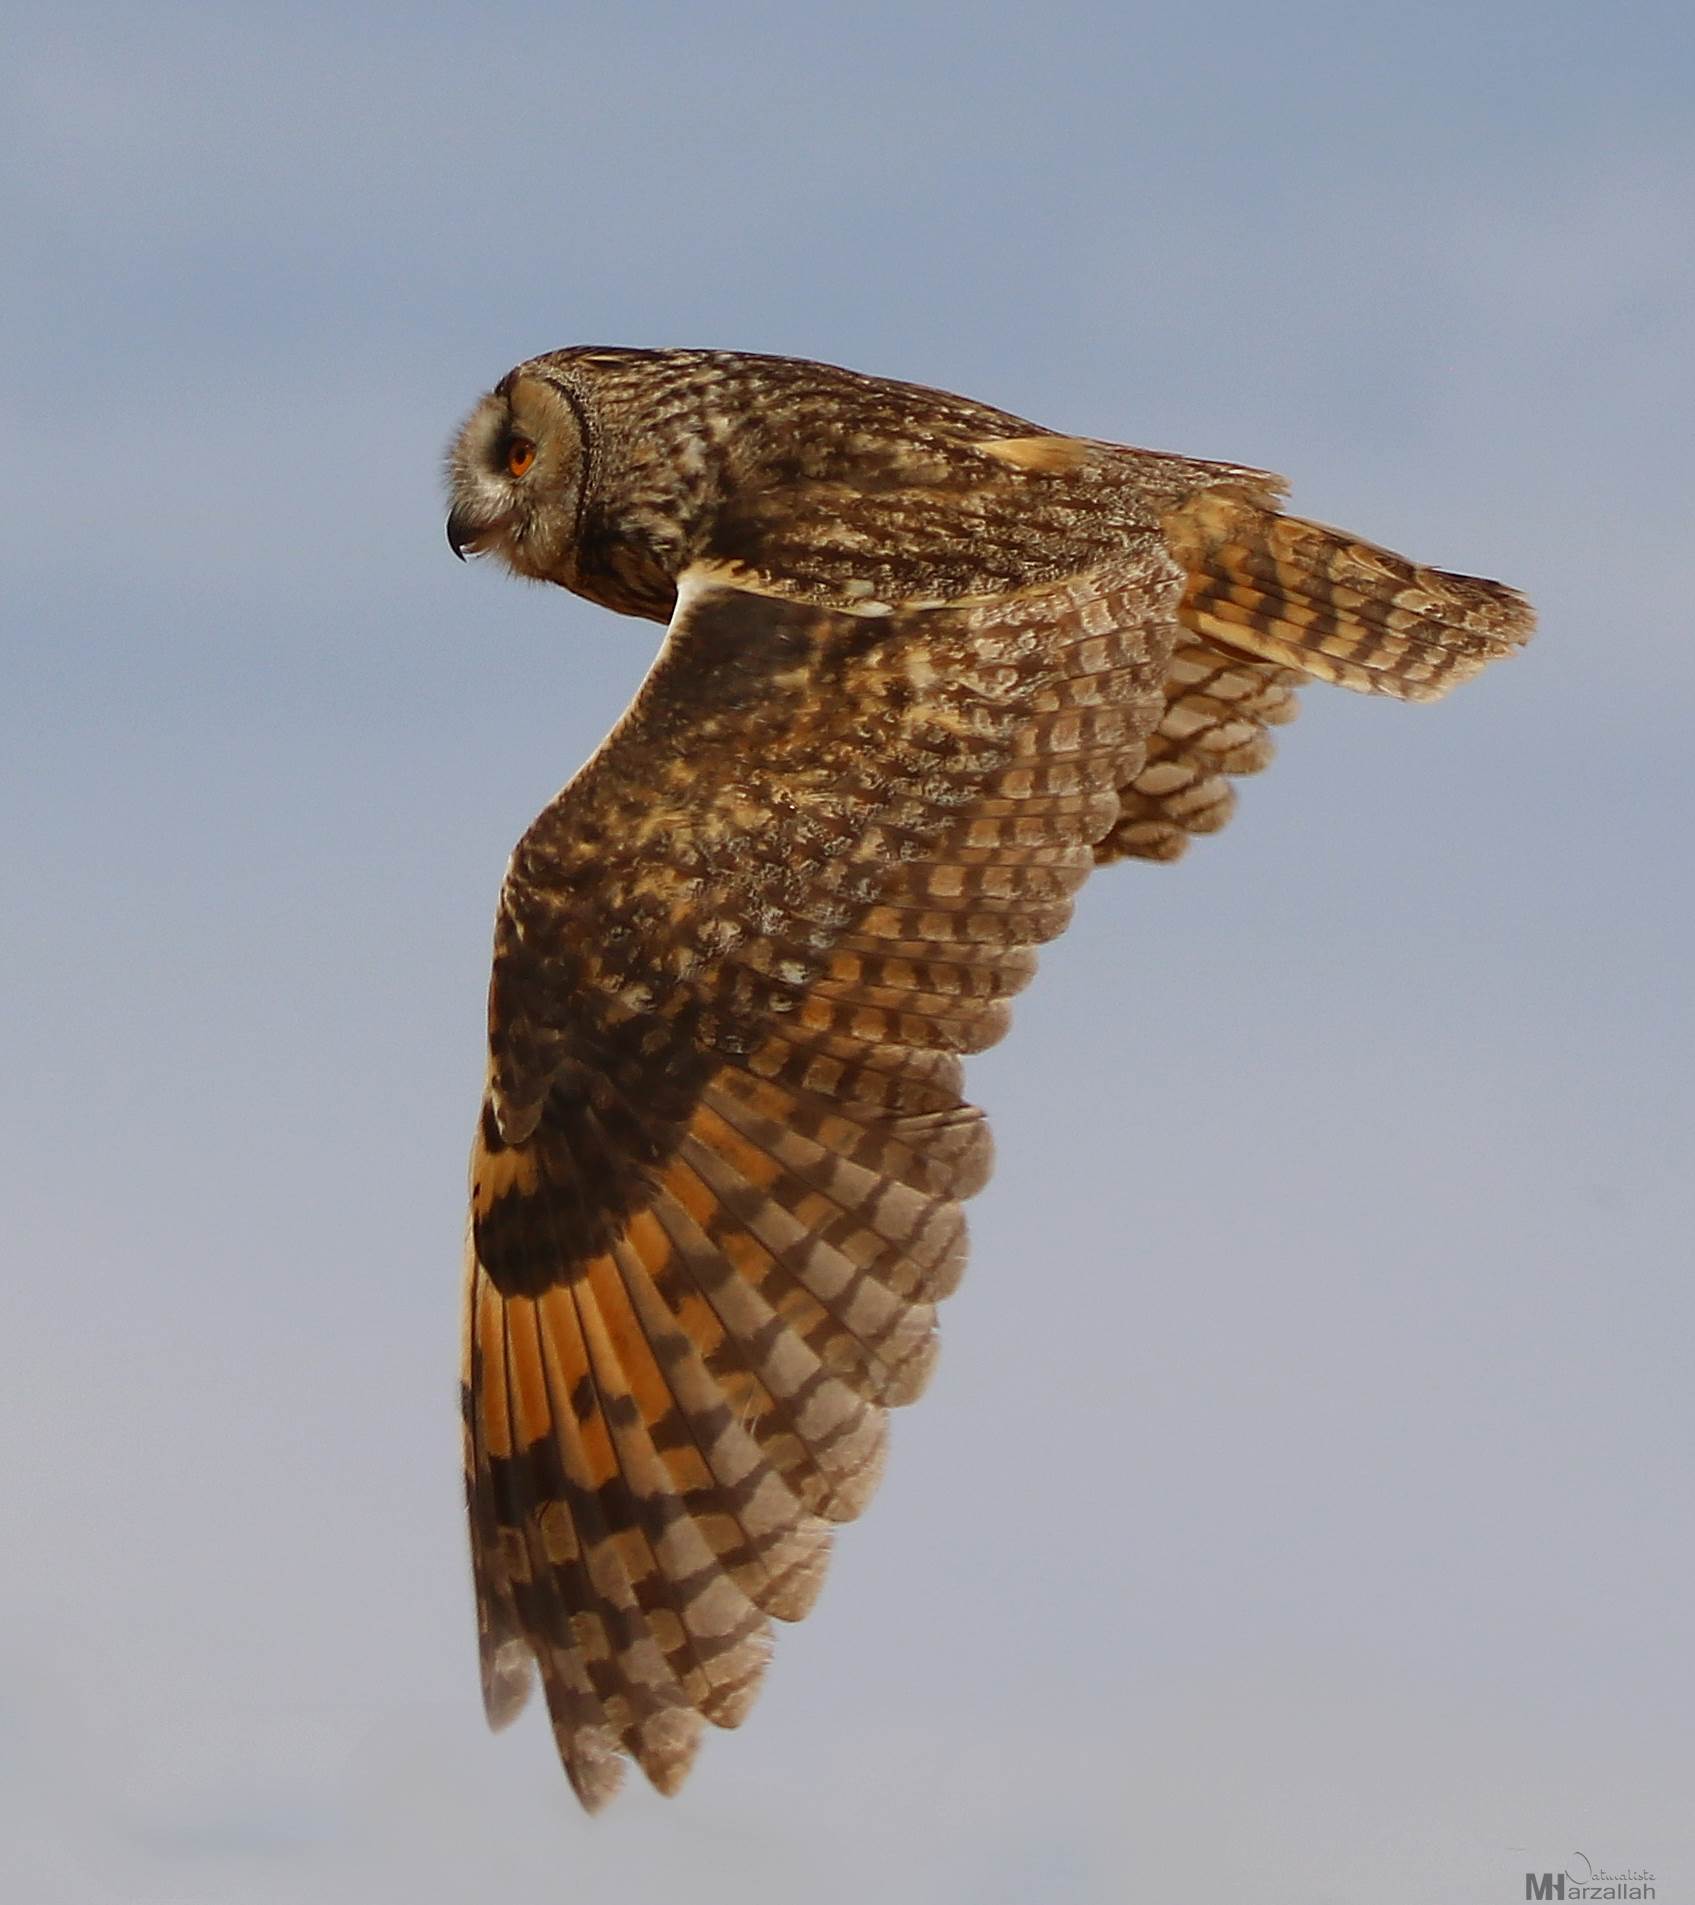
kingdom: Animalia
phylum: Chordata
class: Aves
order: Strigiformes
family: Strigidae
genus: Asio
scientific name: Asio otus
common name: Long-eared owl
